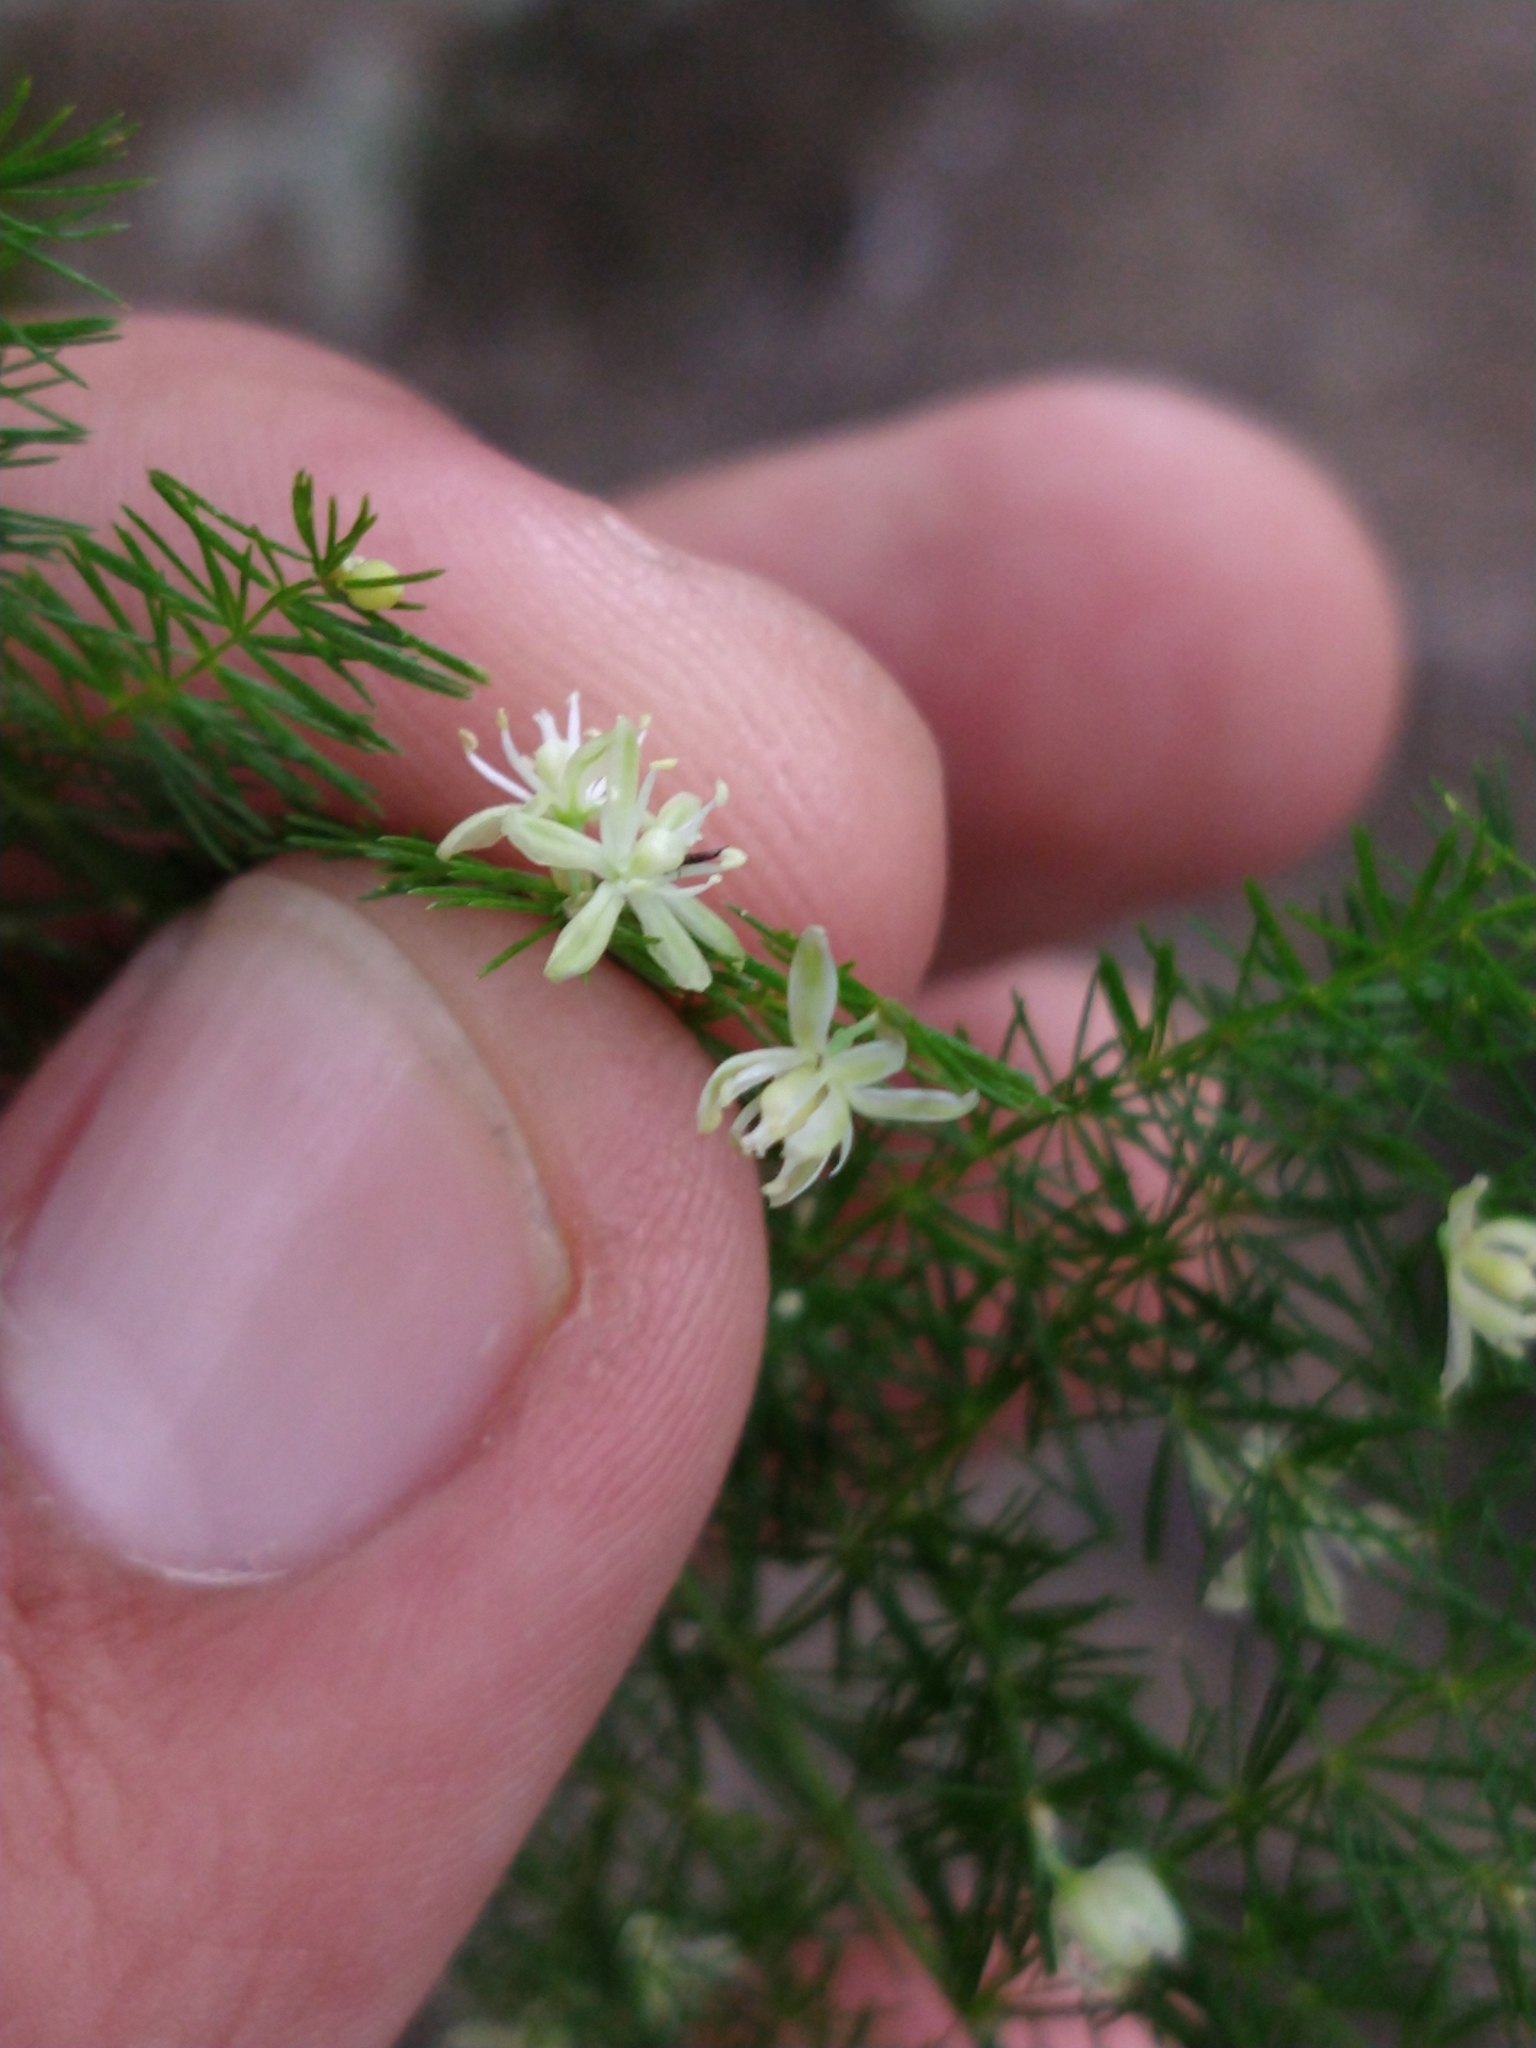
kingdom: Plantae
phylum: Tracheophyta
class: Liliopsida
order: Asparagales
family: Asparagaceae
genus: Asparagus
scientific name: Asparagus setaceus
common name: Common asparagus fern
